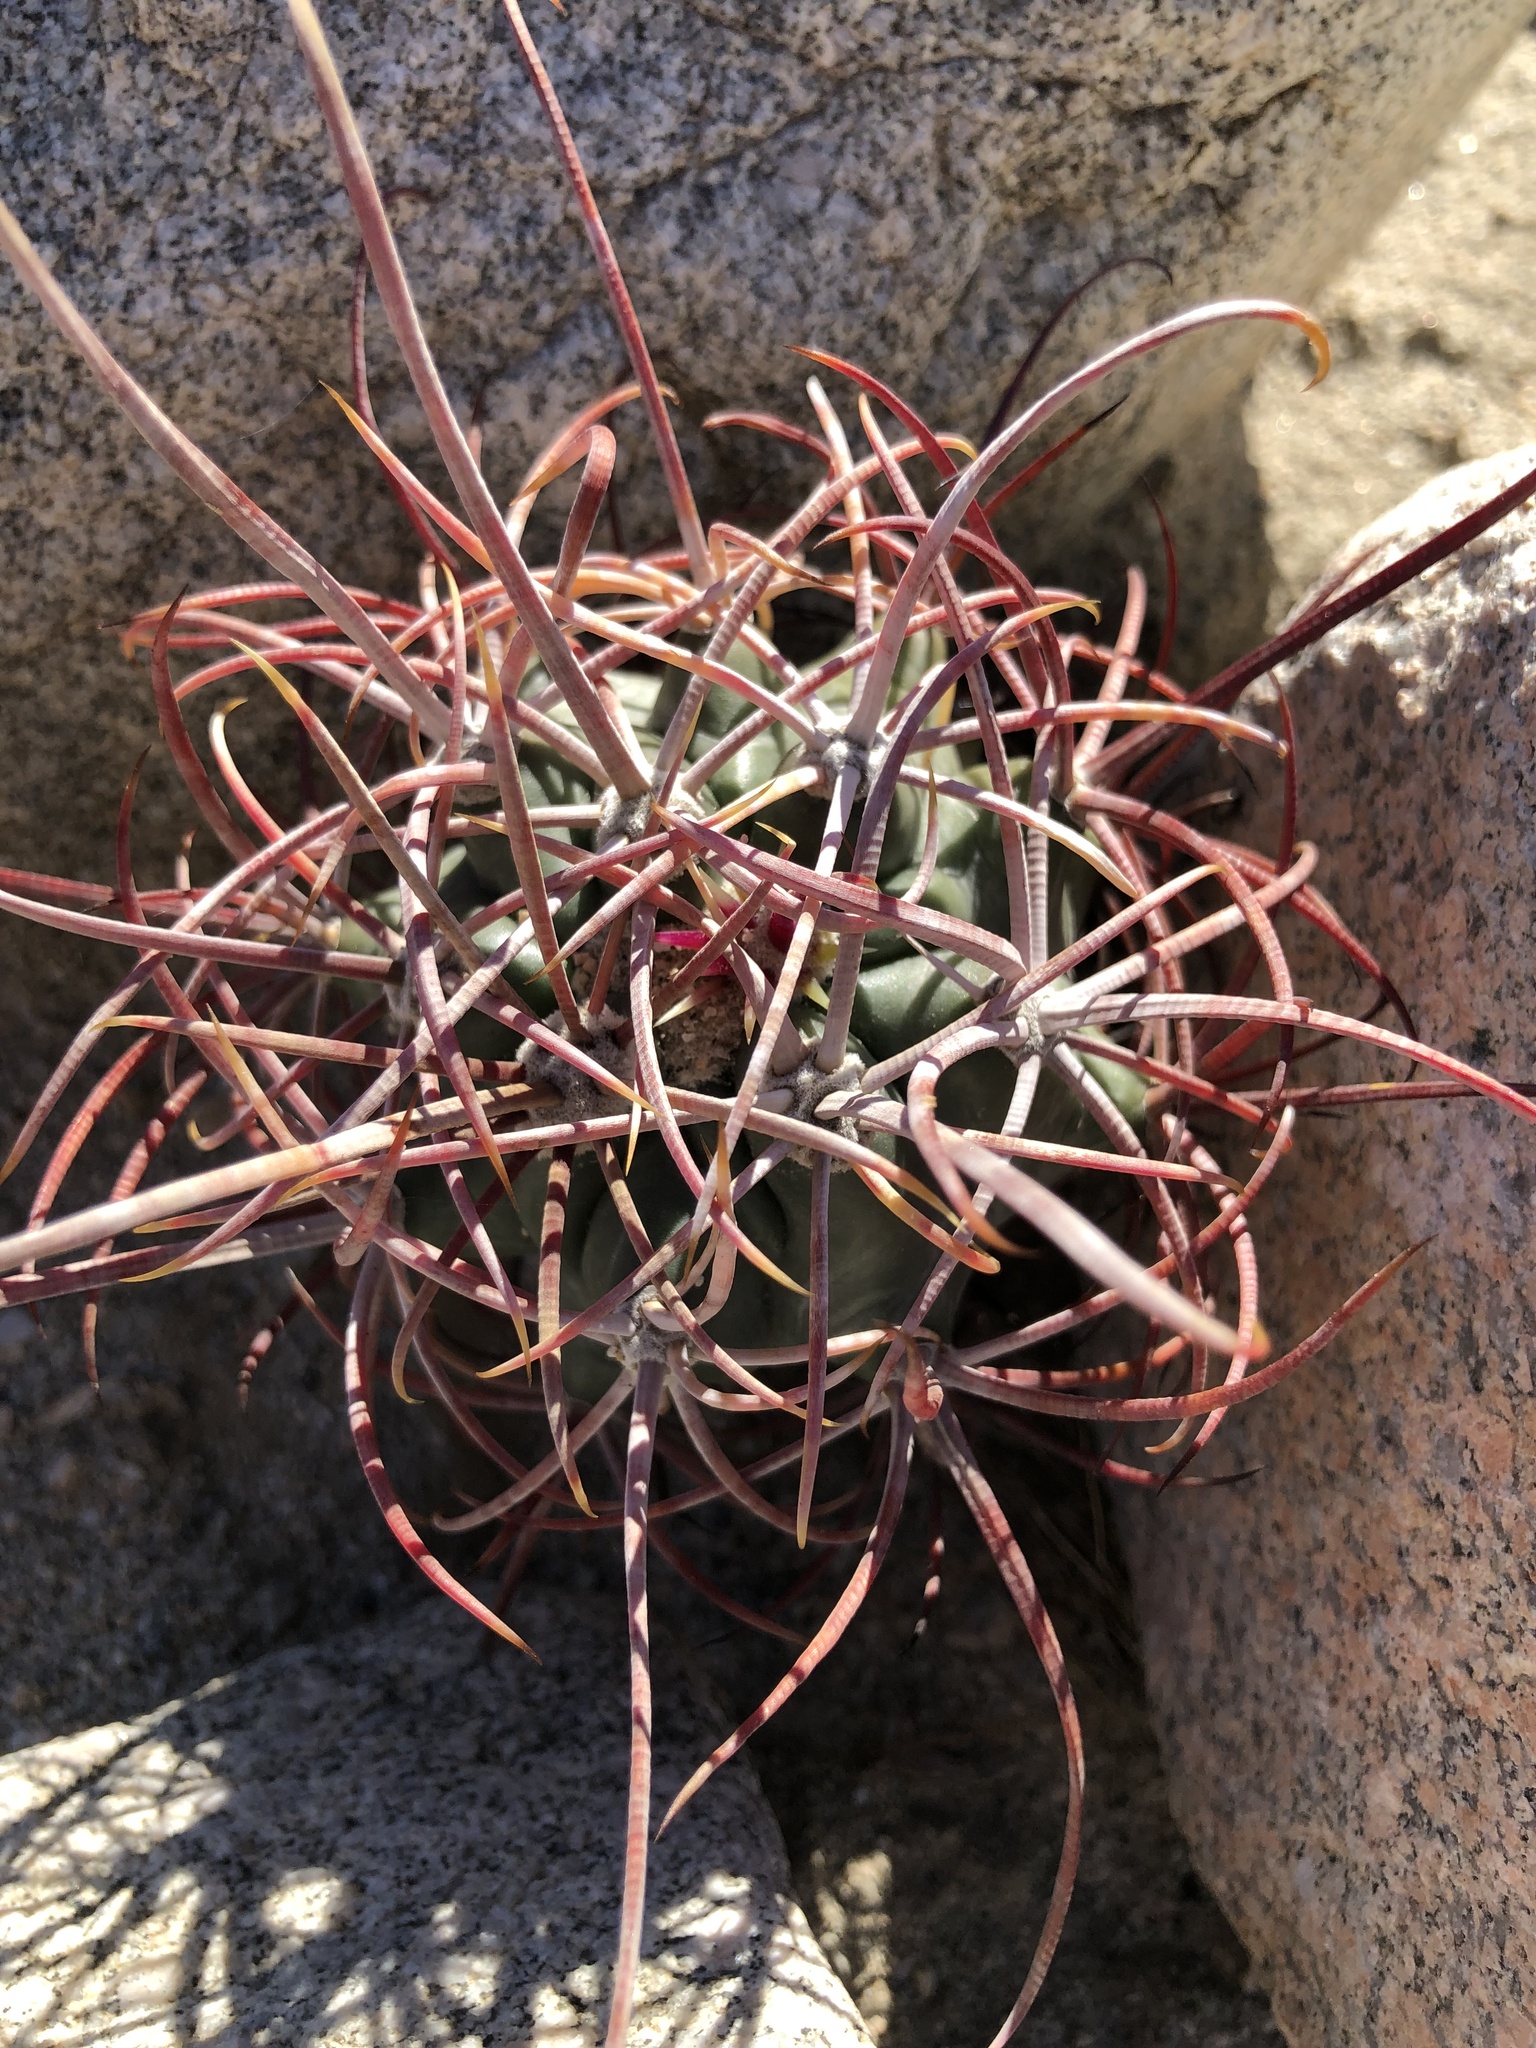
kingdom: Plantae
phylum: Tracheophyta
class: Magnoliopsida
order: Caryophyllales
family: Cactaceae
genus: Ferocactus
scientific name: Ferocactus cylindraceus
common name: California barrel cactus
